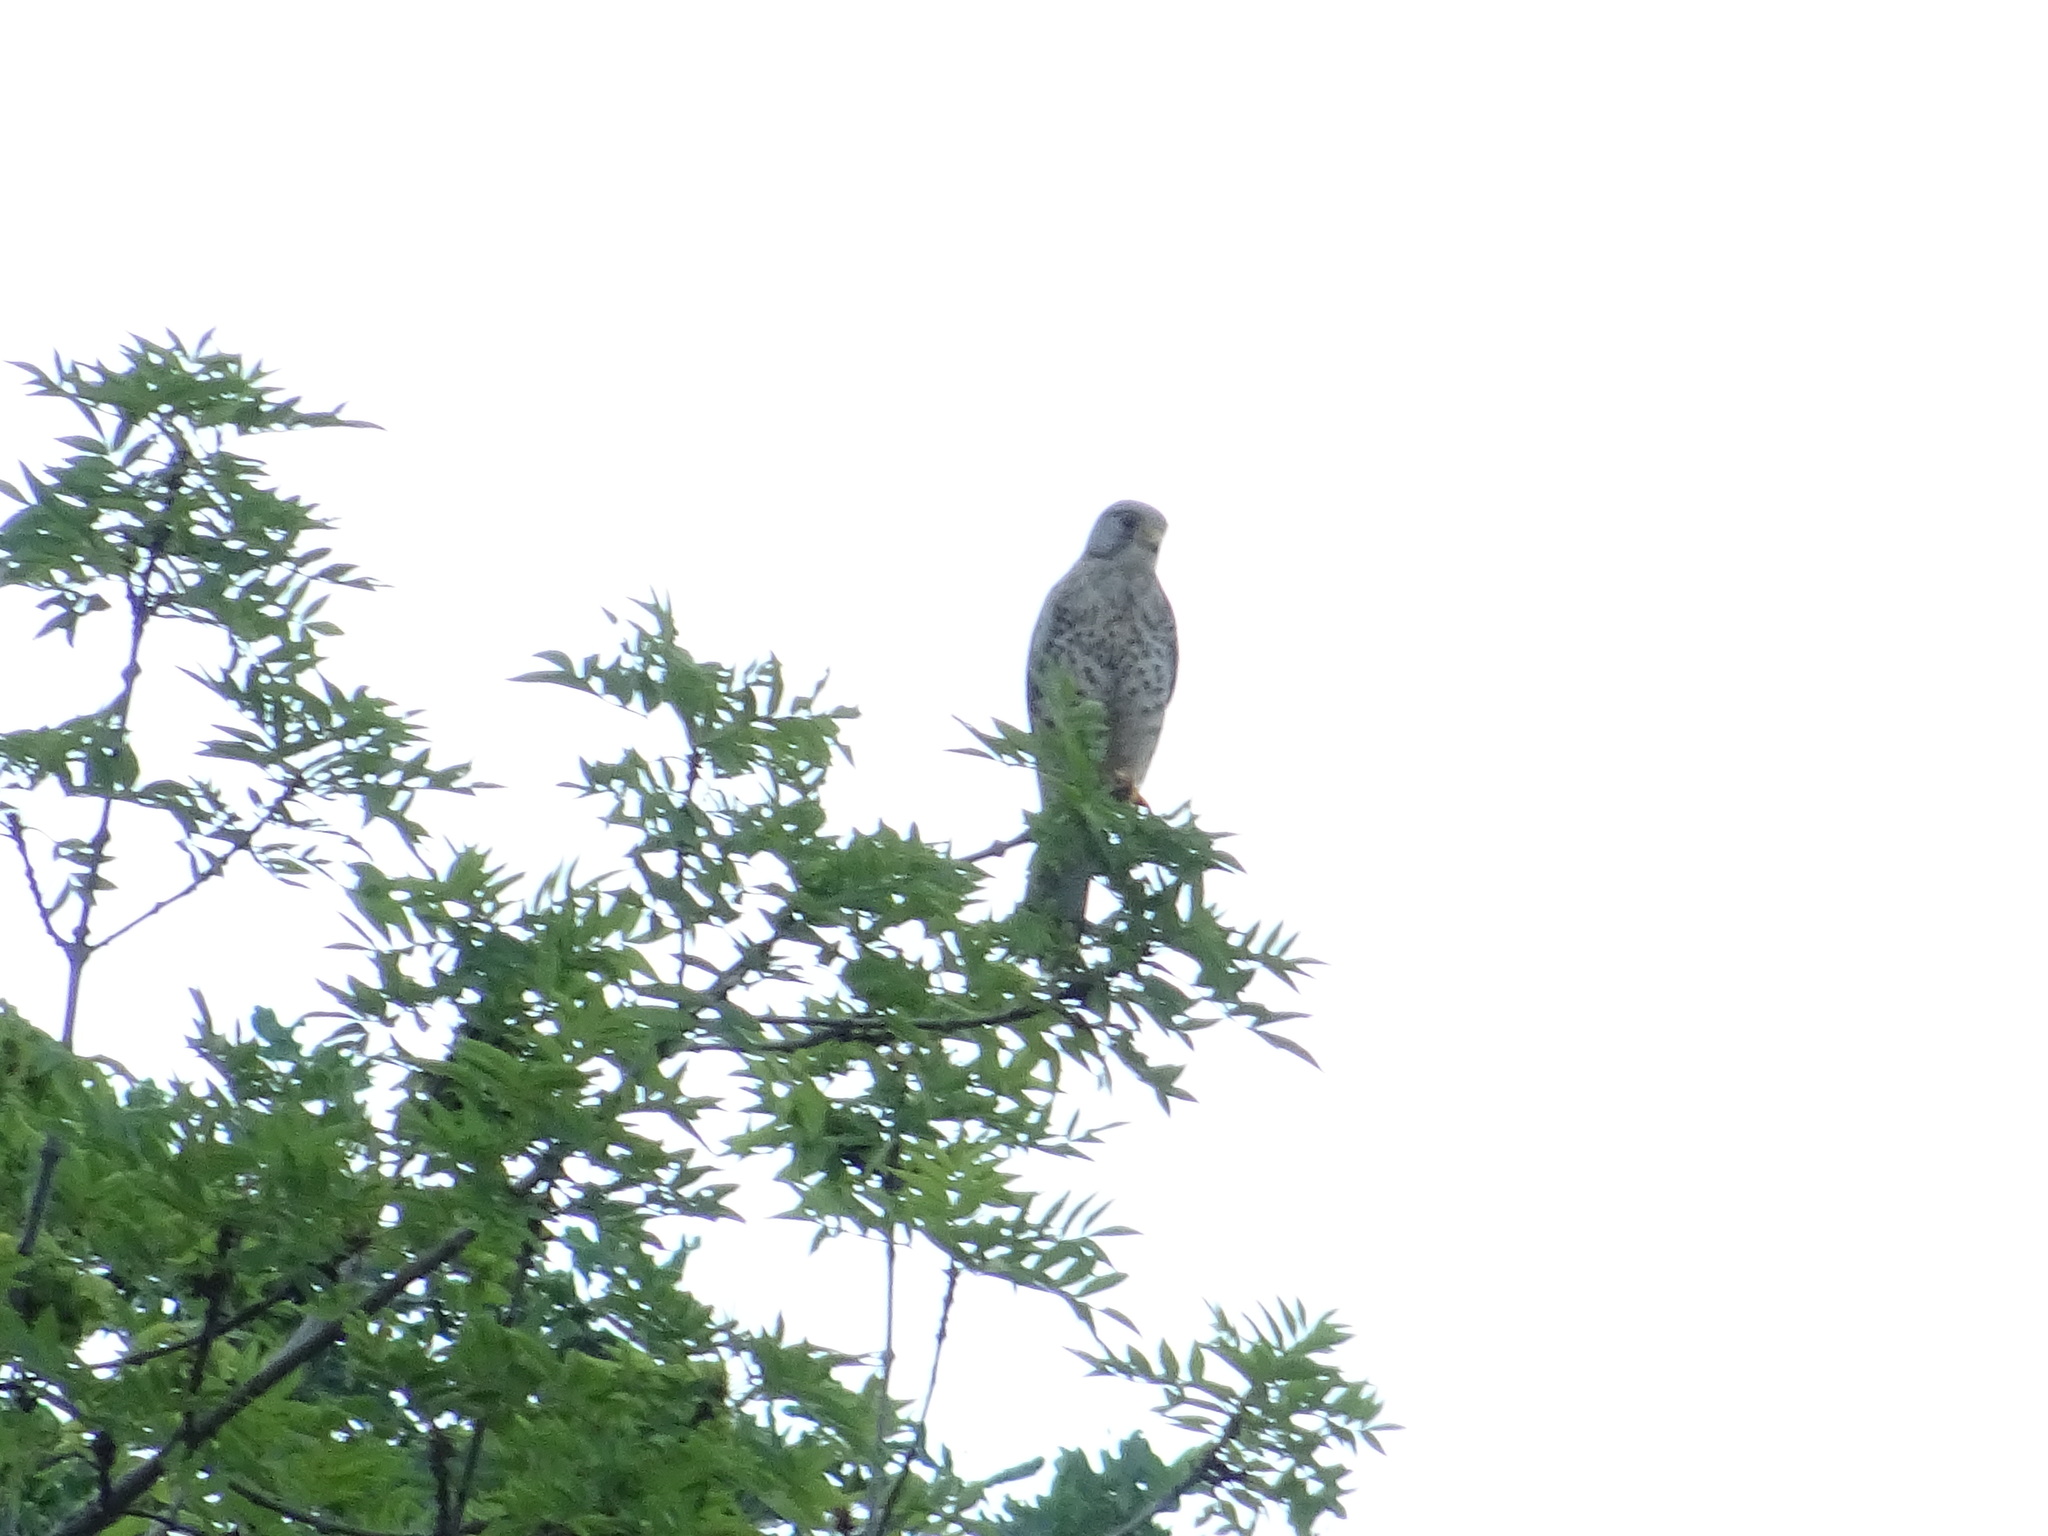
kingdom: Animalia
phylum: Chordata
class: Aves
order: Falconiformes
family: Falconidae
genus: Falco
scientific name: Falco tinnunculus
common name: Common kestrel
